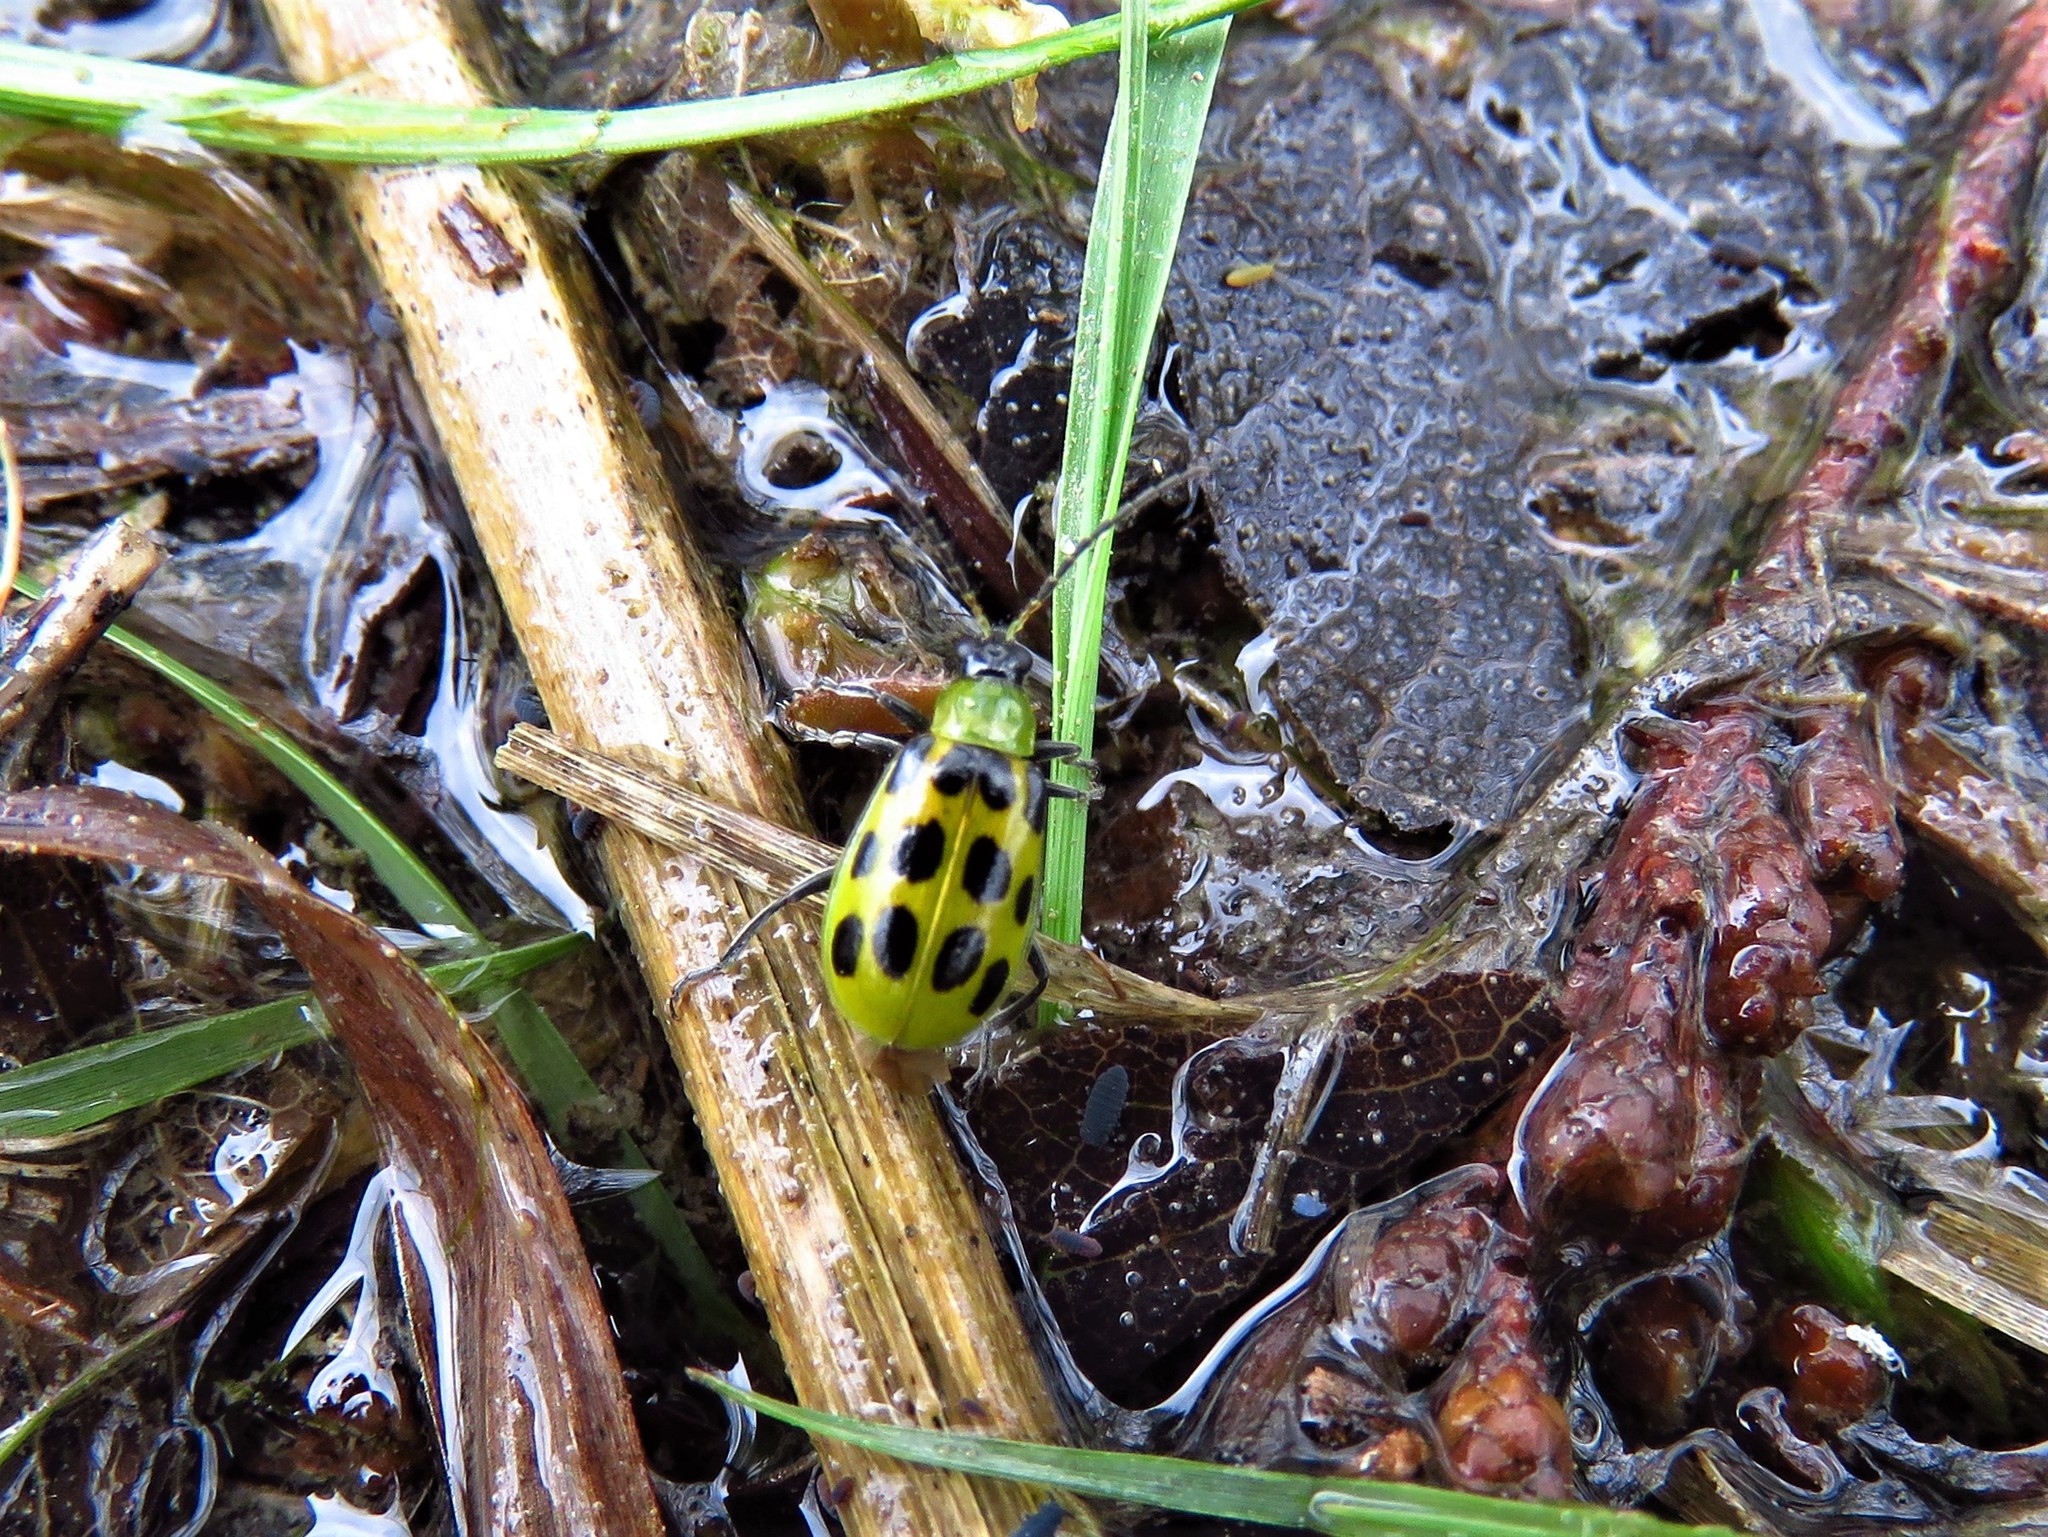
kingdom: Animalia
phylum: Arthropoda
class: Insecta
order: Coleoptera
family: Chrysomelidae
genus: Diabrotica
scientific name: Diabrotica undecimpunctata
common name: Spotted cucumber beetle
